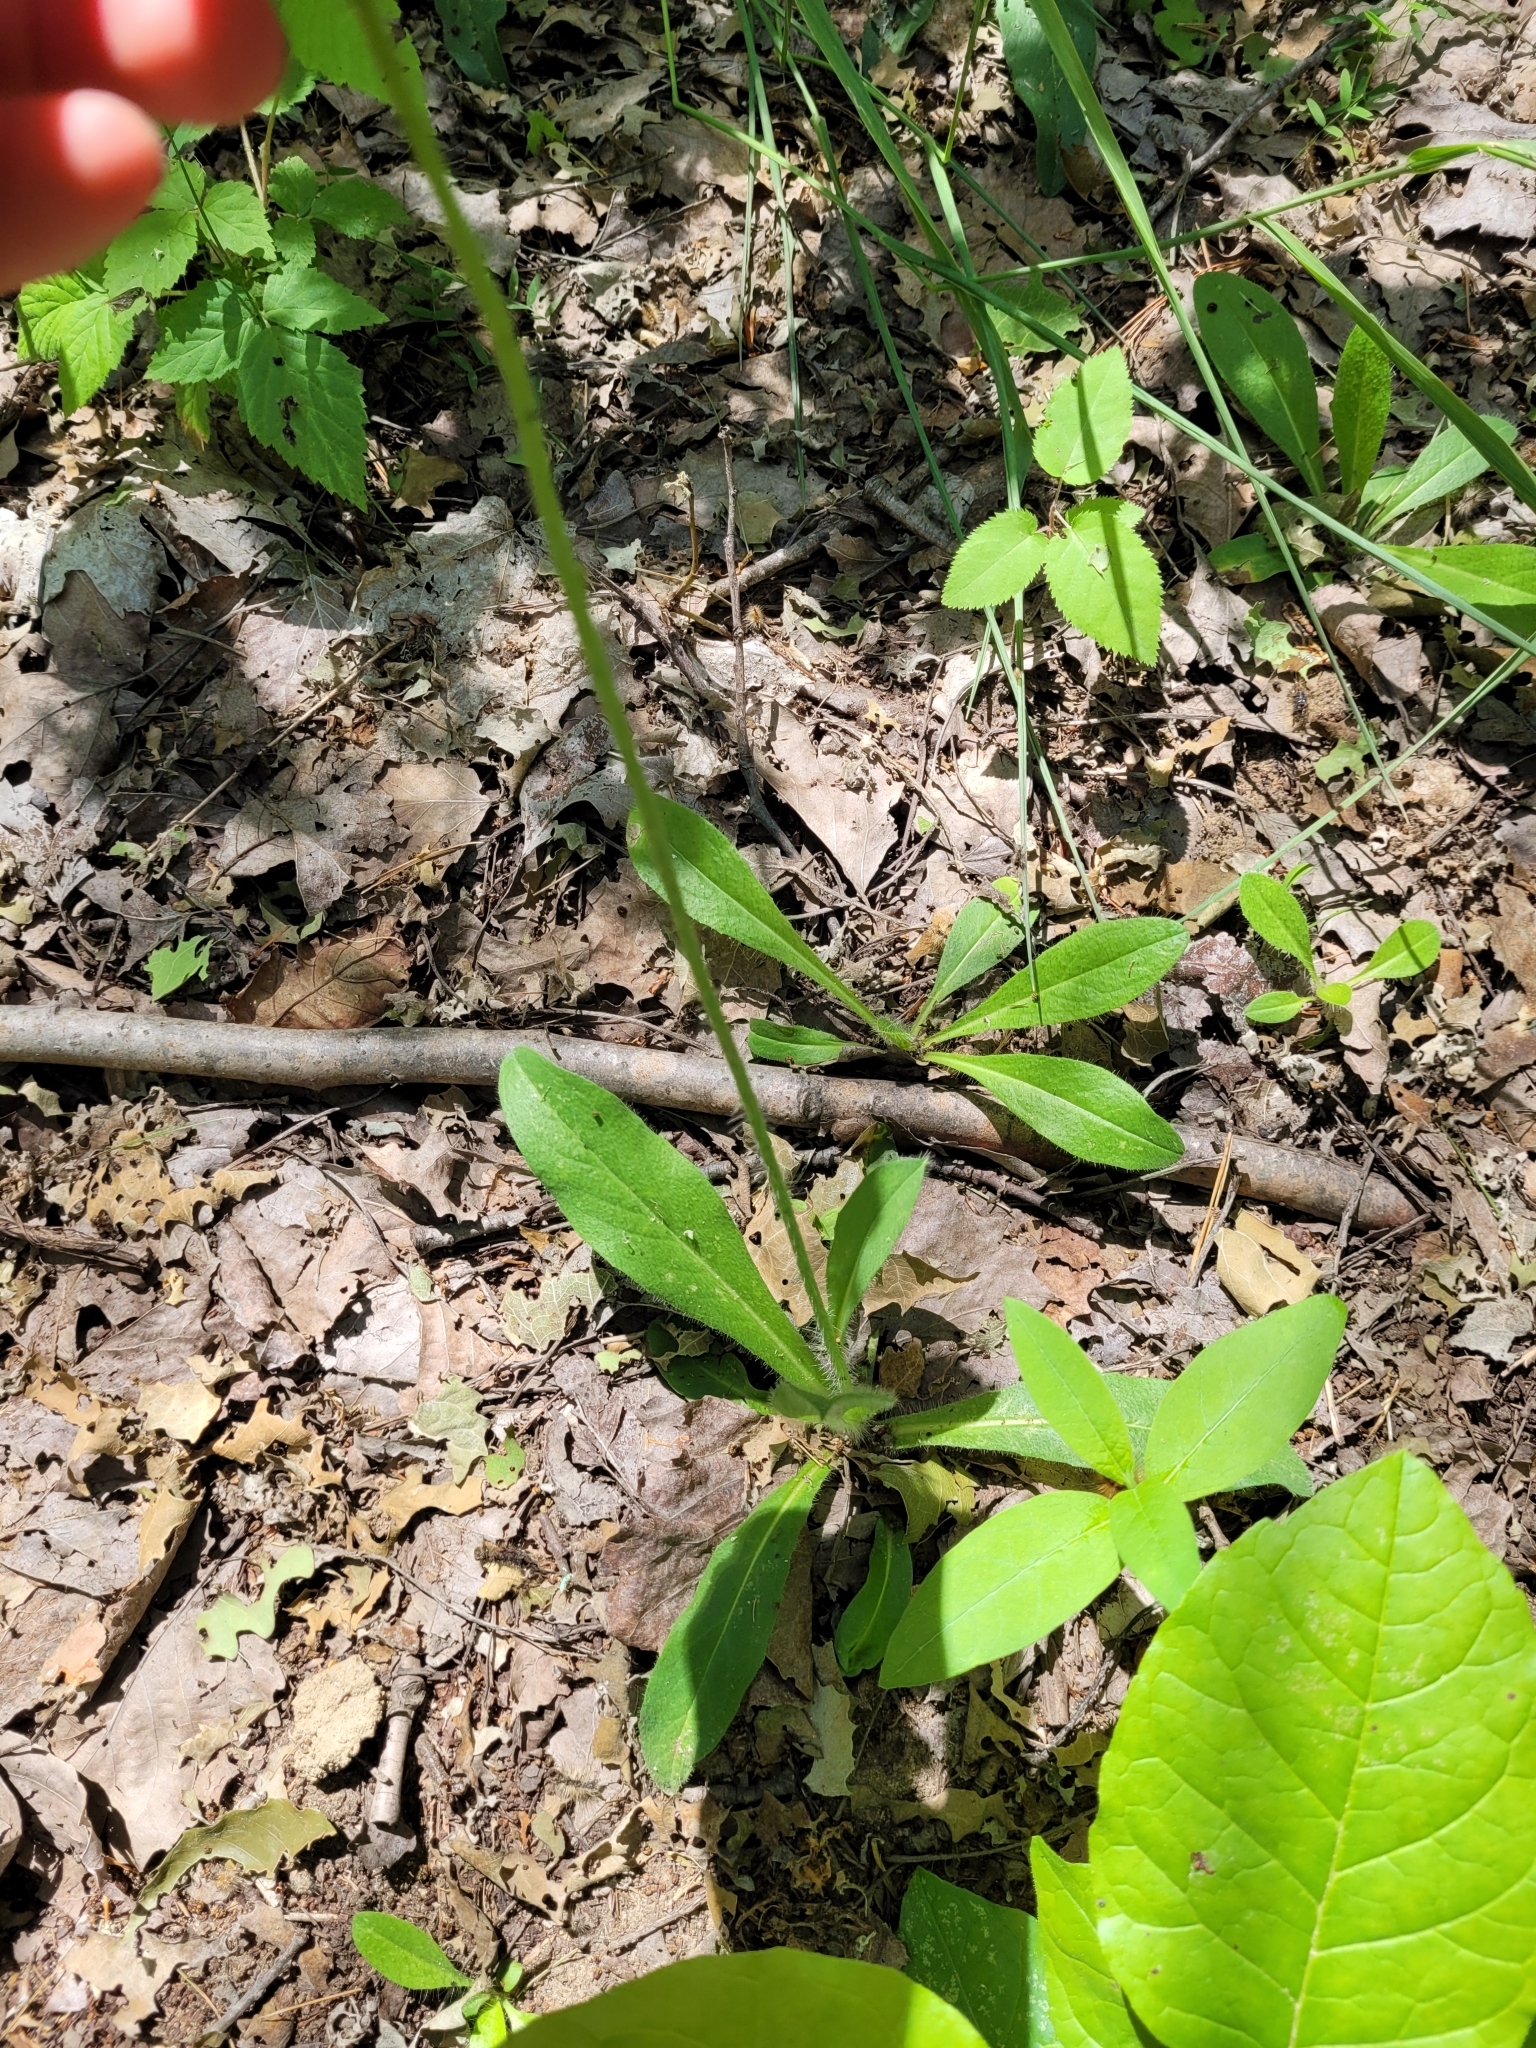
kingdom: Plantae
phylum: Tracheophyta
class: Magnoliopsida
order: Asterales
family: Asteraceae
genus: Pilosella
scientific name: Pilosella aurantiaca
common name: Fox-and-cubs
